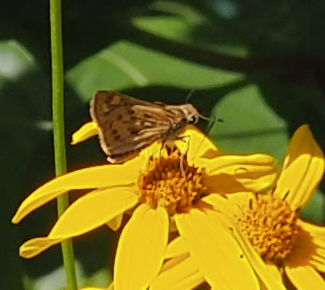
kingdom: Animalia
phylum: Arthropoda
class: Insecta
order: Lepidoptera
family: Hesperiidae
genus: Hylephila
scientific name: Hylephila phyleus
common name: Fiery skipper
